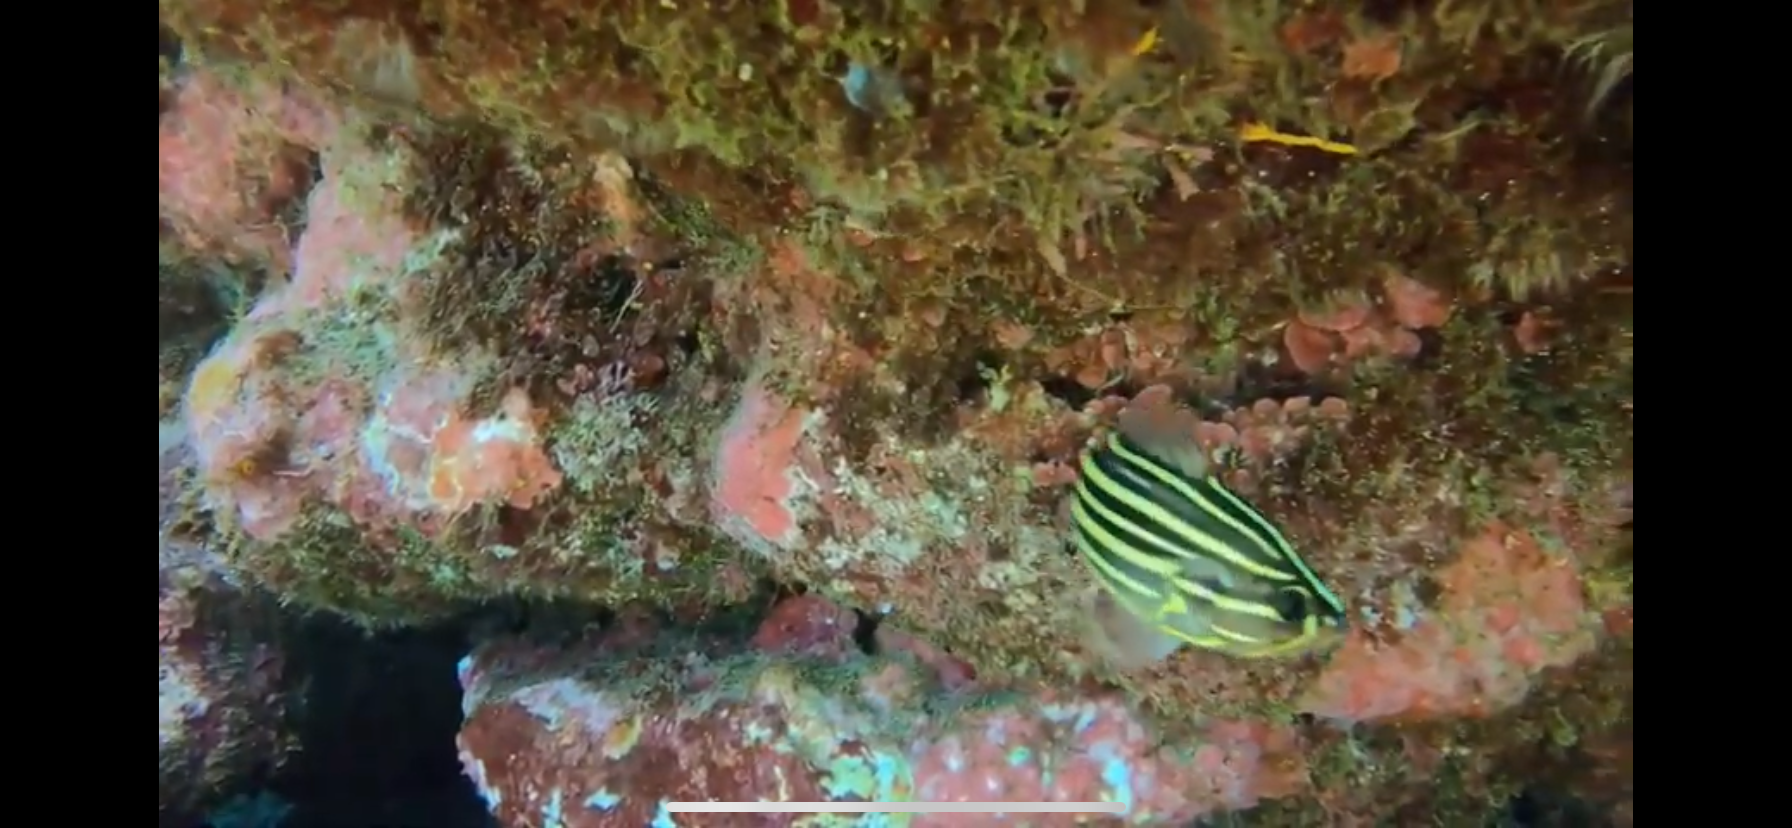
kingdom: Animalia
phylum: Chordata
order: Perciformes
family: Serranidae
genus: Grammistes
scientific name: Grammistes sexlineatus
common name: Sixline soapfish
